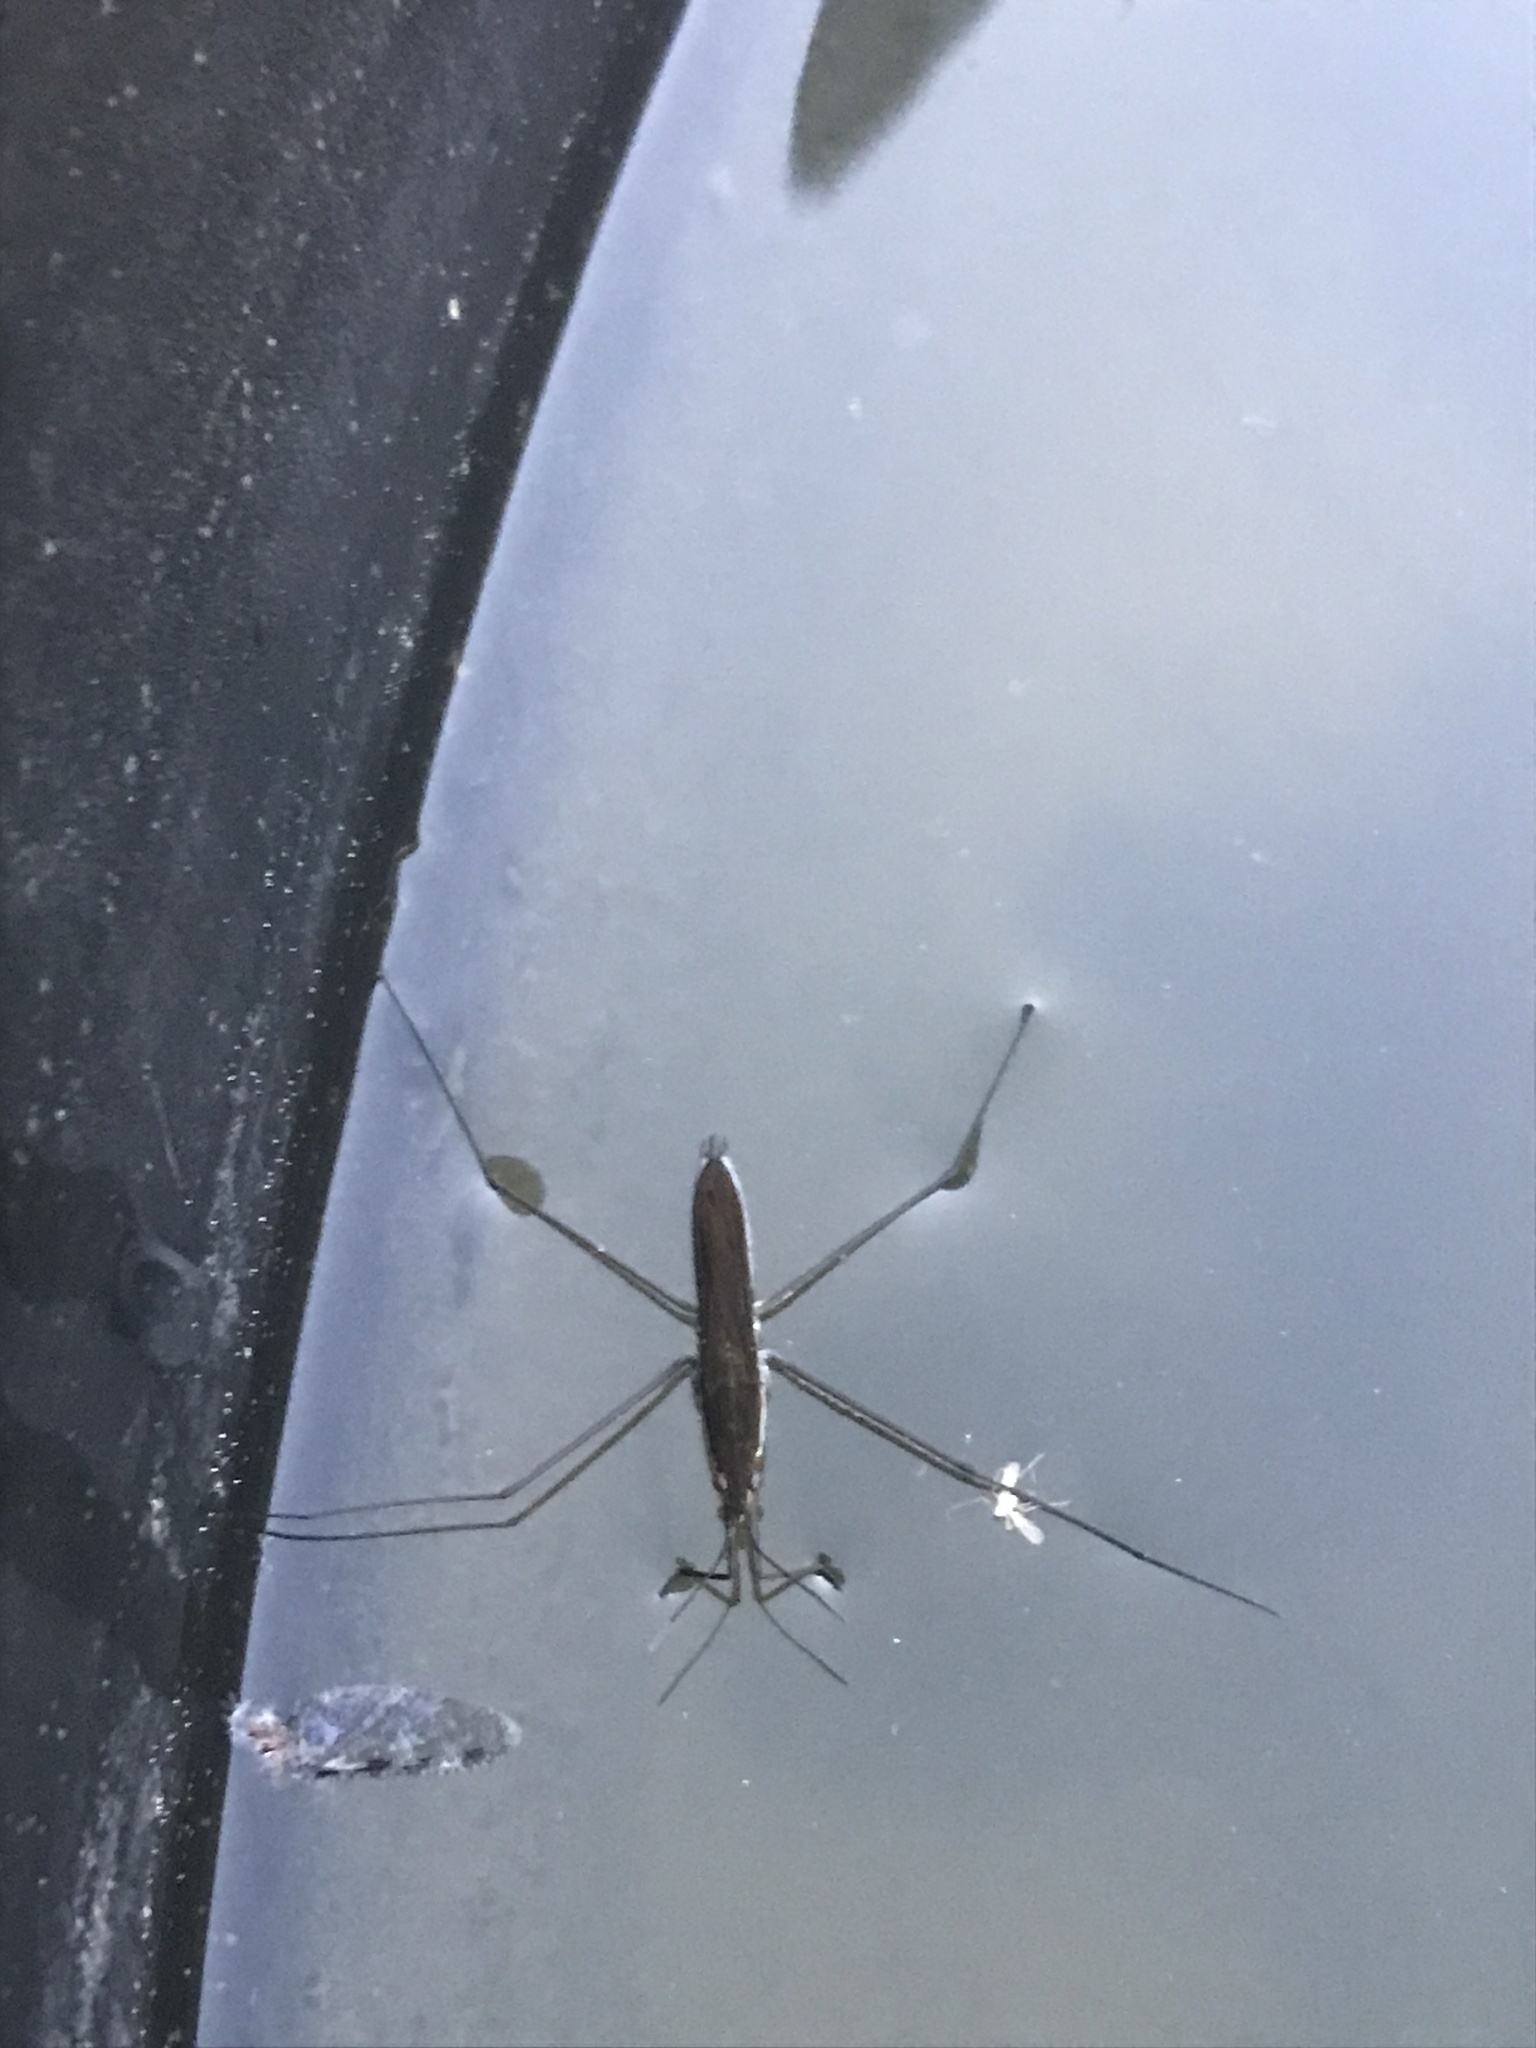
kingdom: Animalia
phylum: Arthropoda
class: Insecta
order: Hemiptera
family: Gerridae
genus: Limnoporus
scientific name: Limnoporus notabilis
